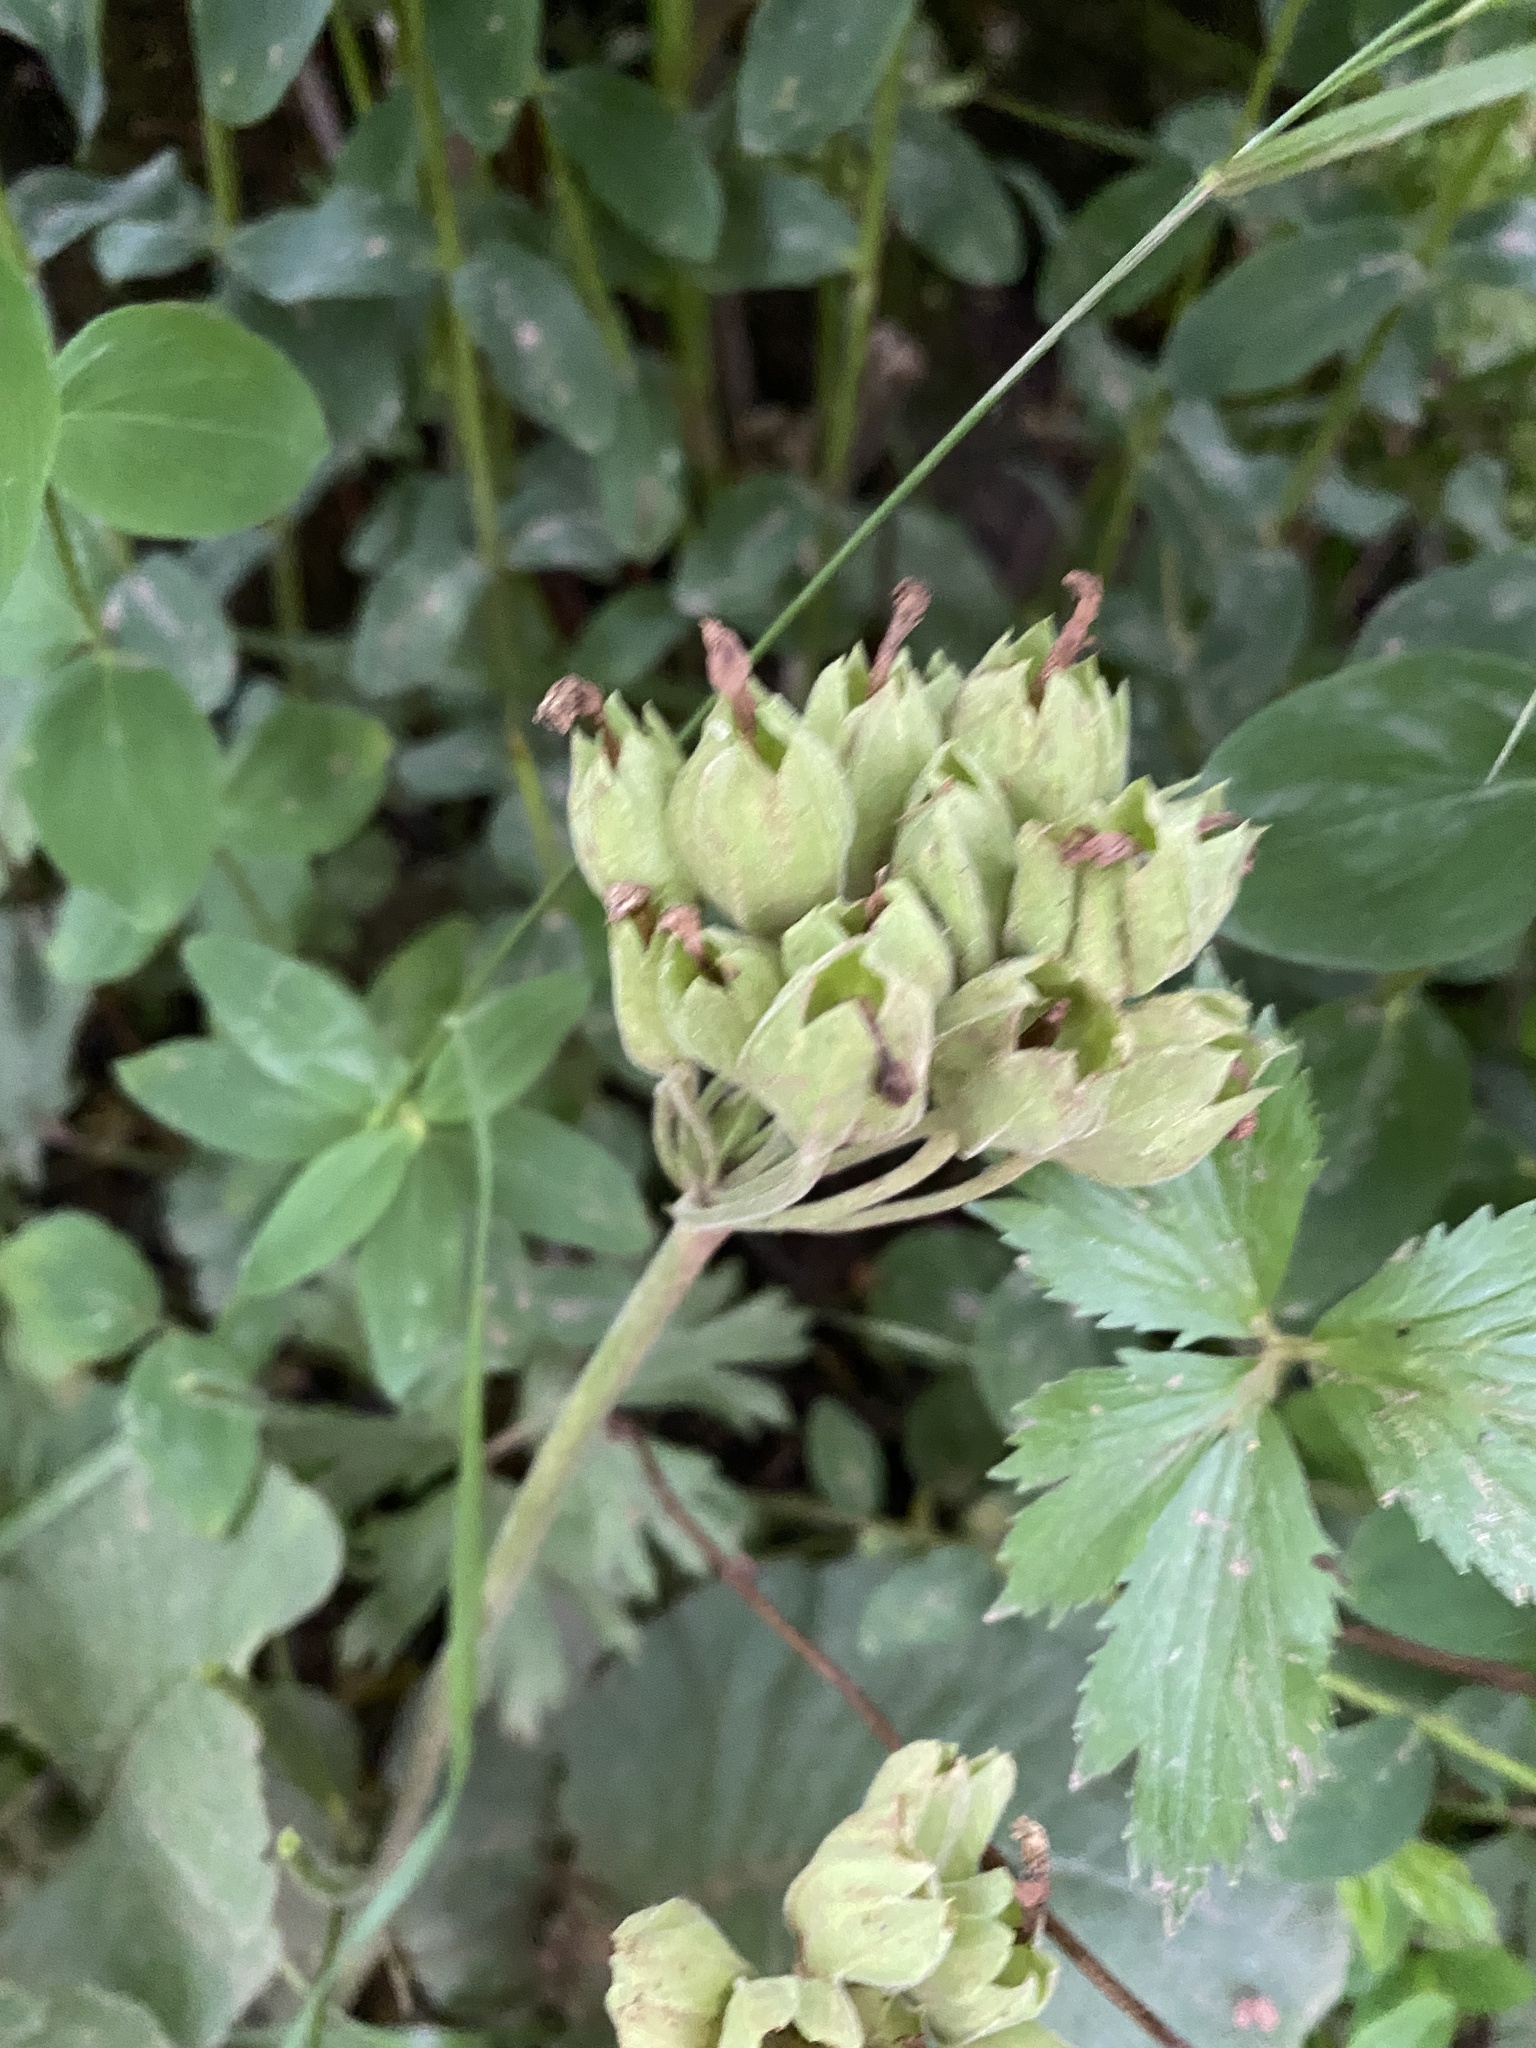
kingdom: Plantae
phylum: Tracheophyta
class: Magnoliopsida
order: Ericales
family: Primulaceae
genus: Primula
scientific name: Primula veris
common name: Cowslip
